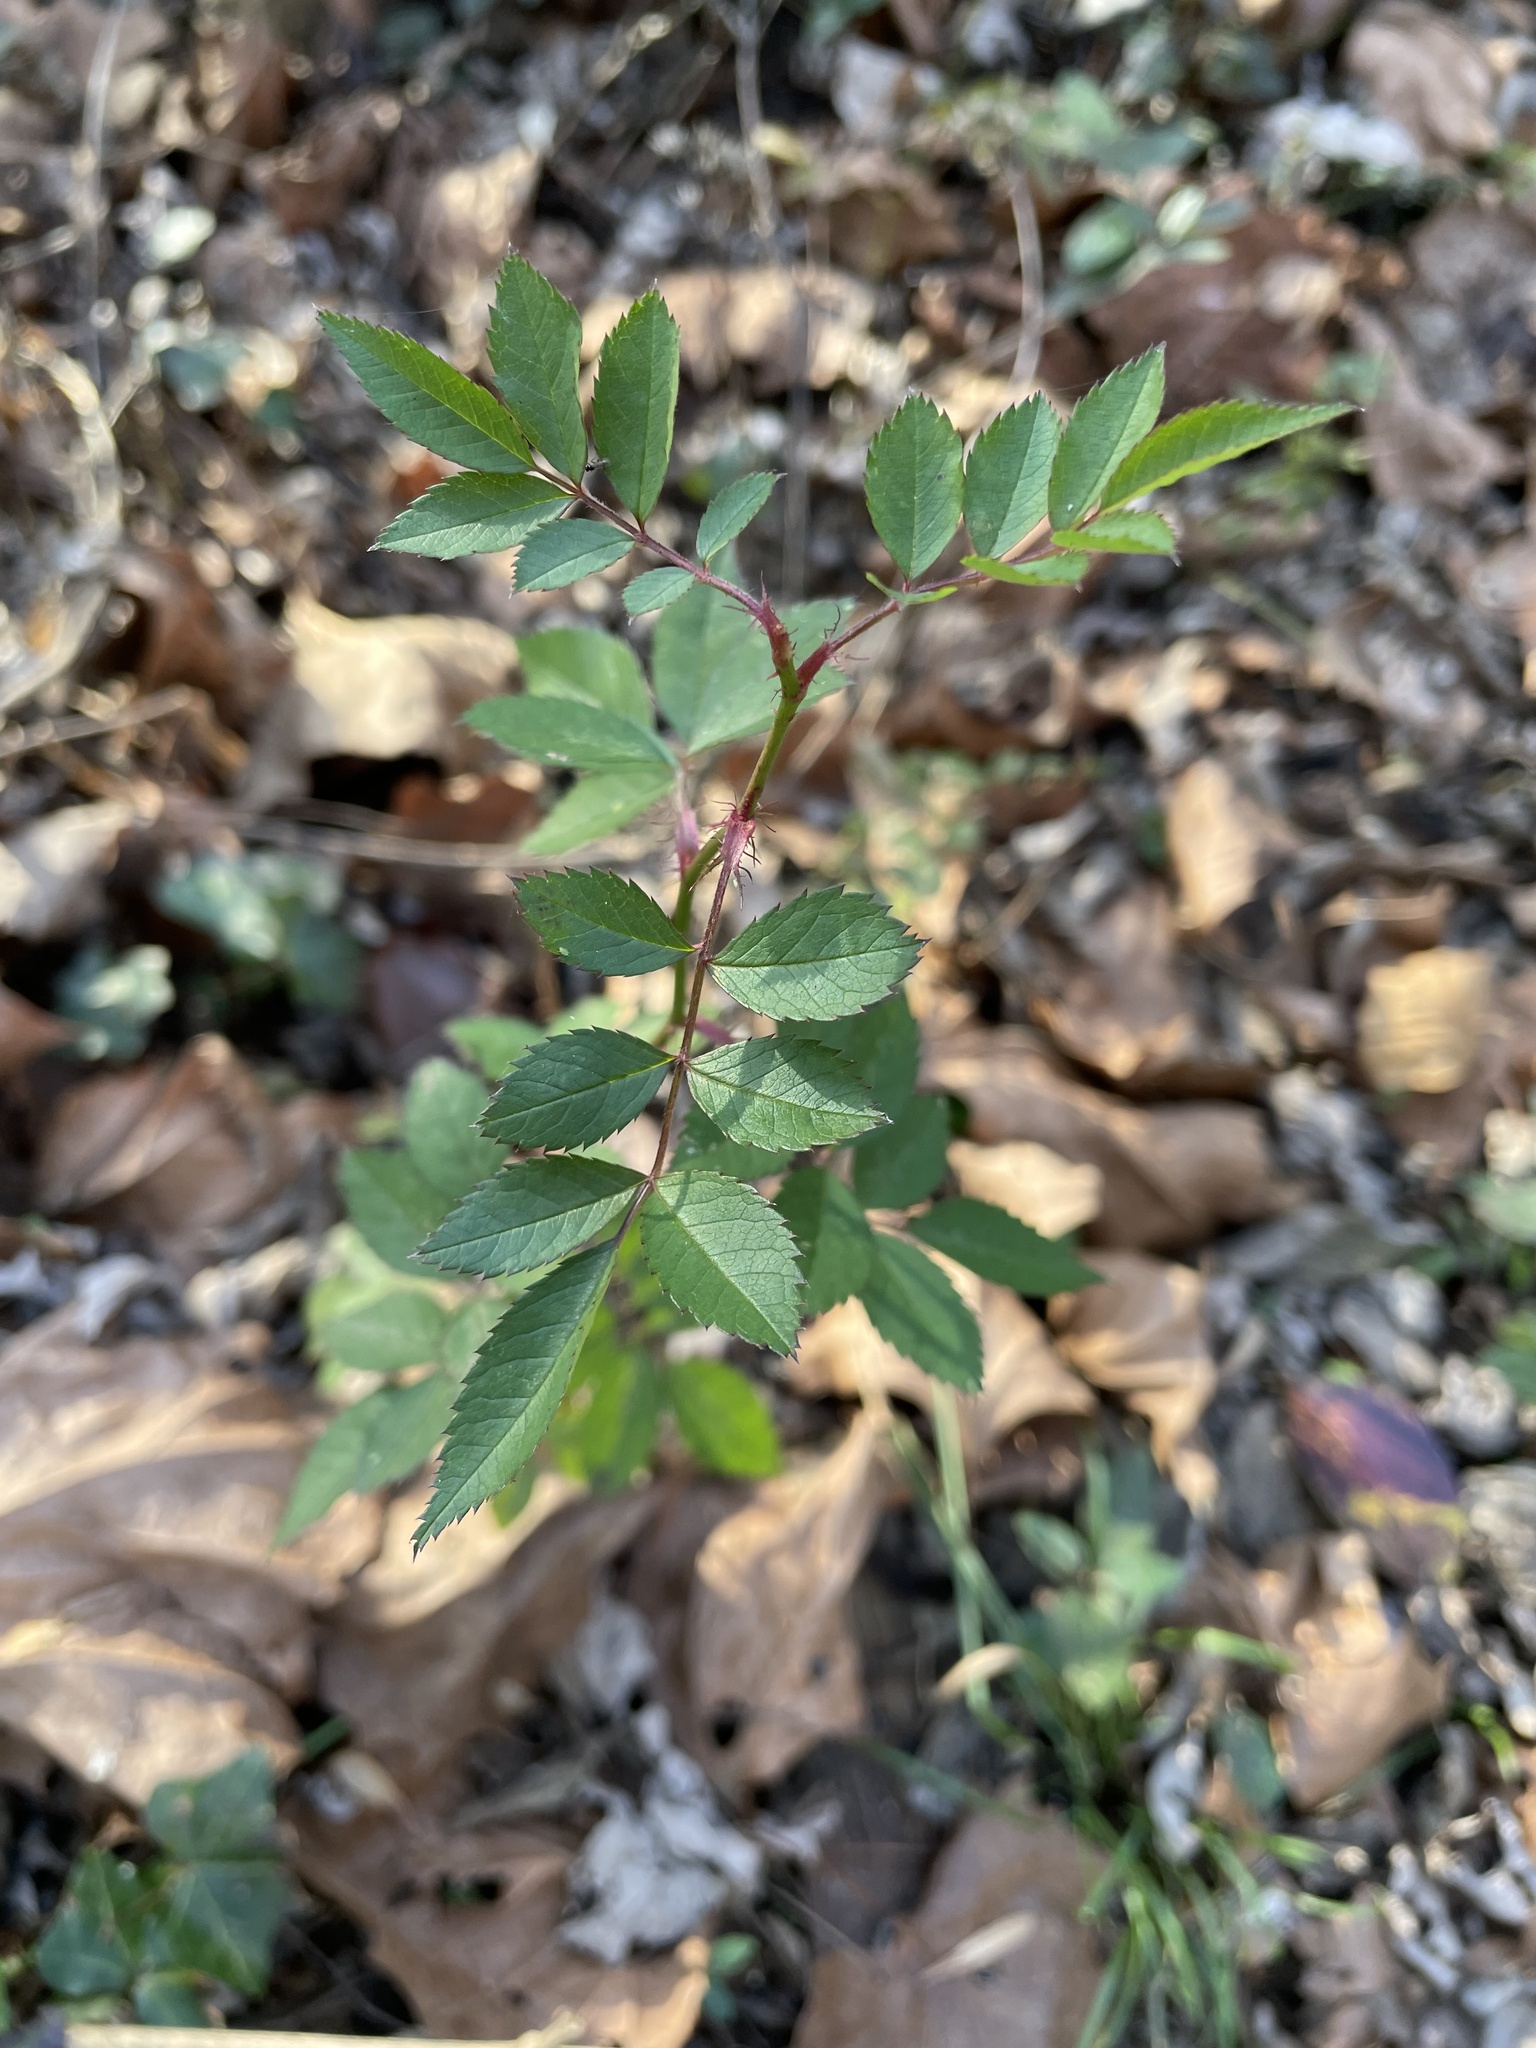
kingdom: Plantae
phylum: Tracheophyta
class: Magnoliopsida
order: Rosales
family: Rosaceae
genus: Rosa
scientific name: Rosa multiflora
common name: Multiflora rose
